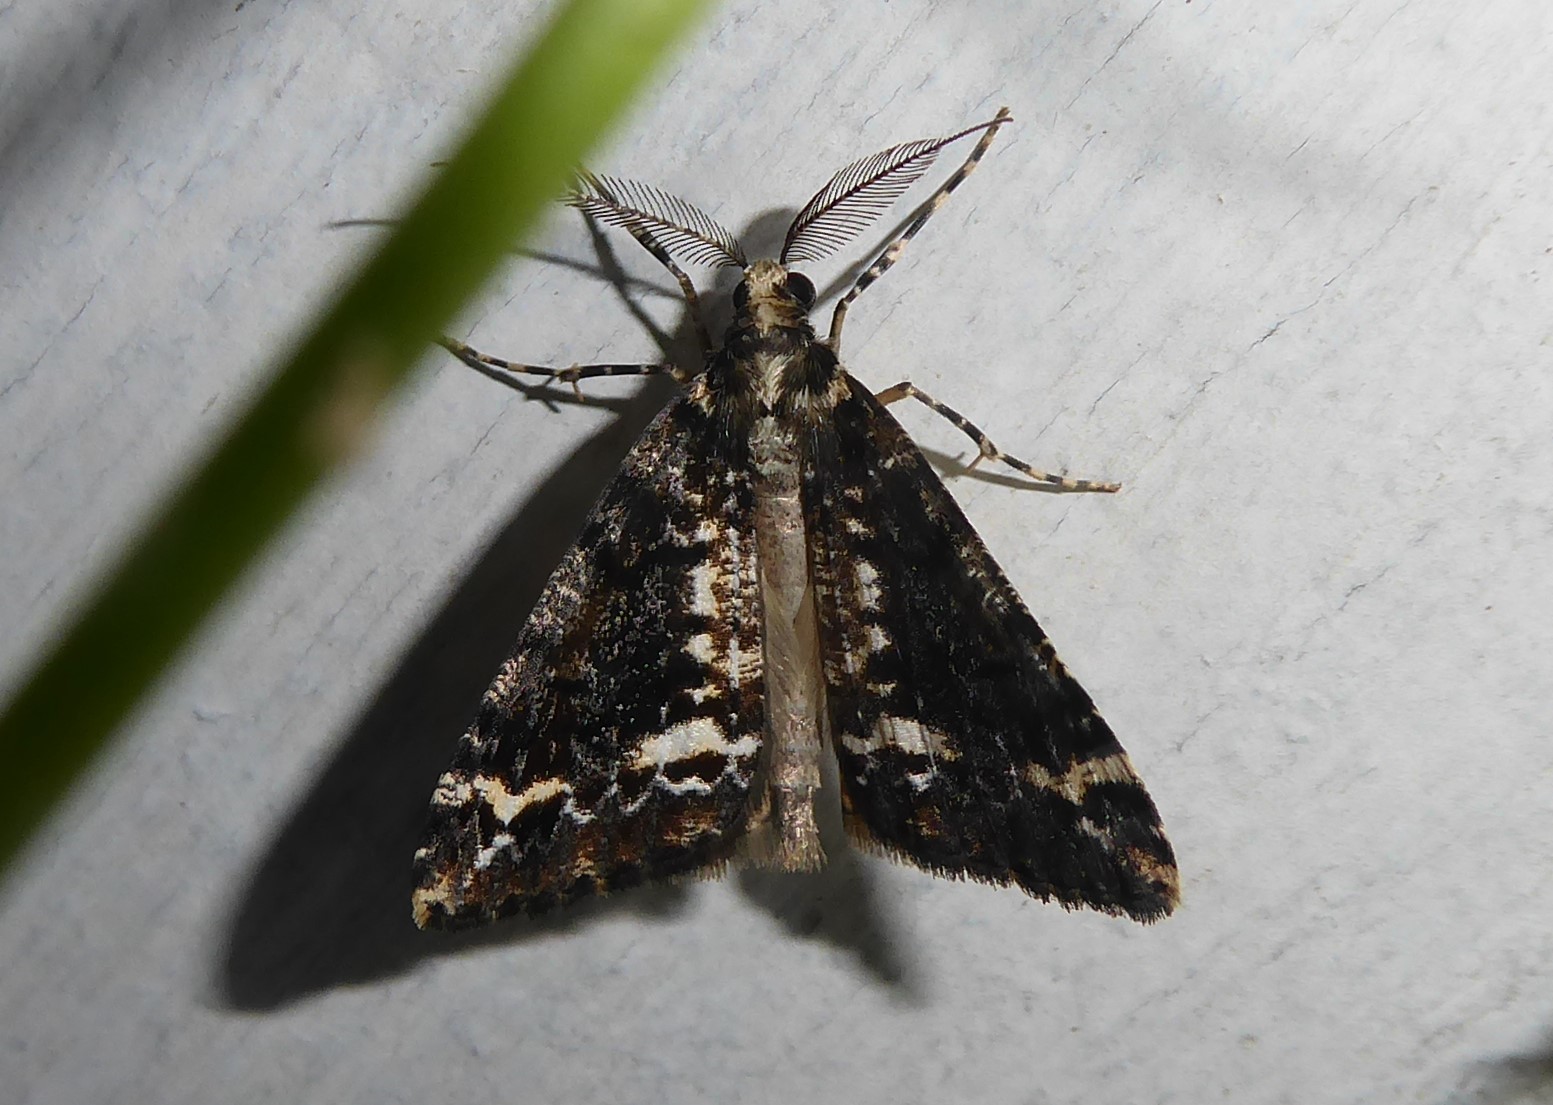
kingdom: Animalia
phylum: Arthropoda
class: Insecta
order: Lepidoptera
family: Geometridae
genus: Pseudocoremia
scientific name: Pseudocoremia leucelaea
